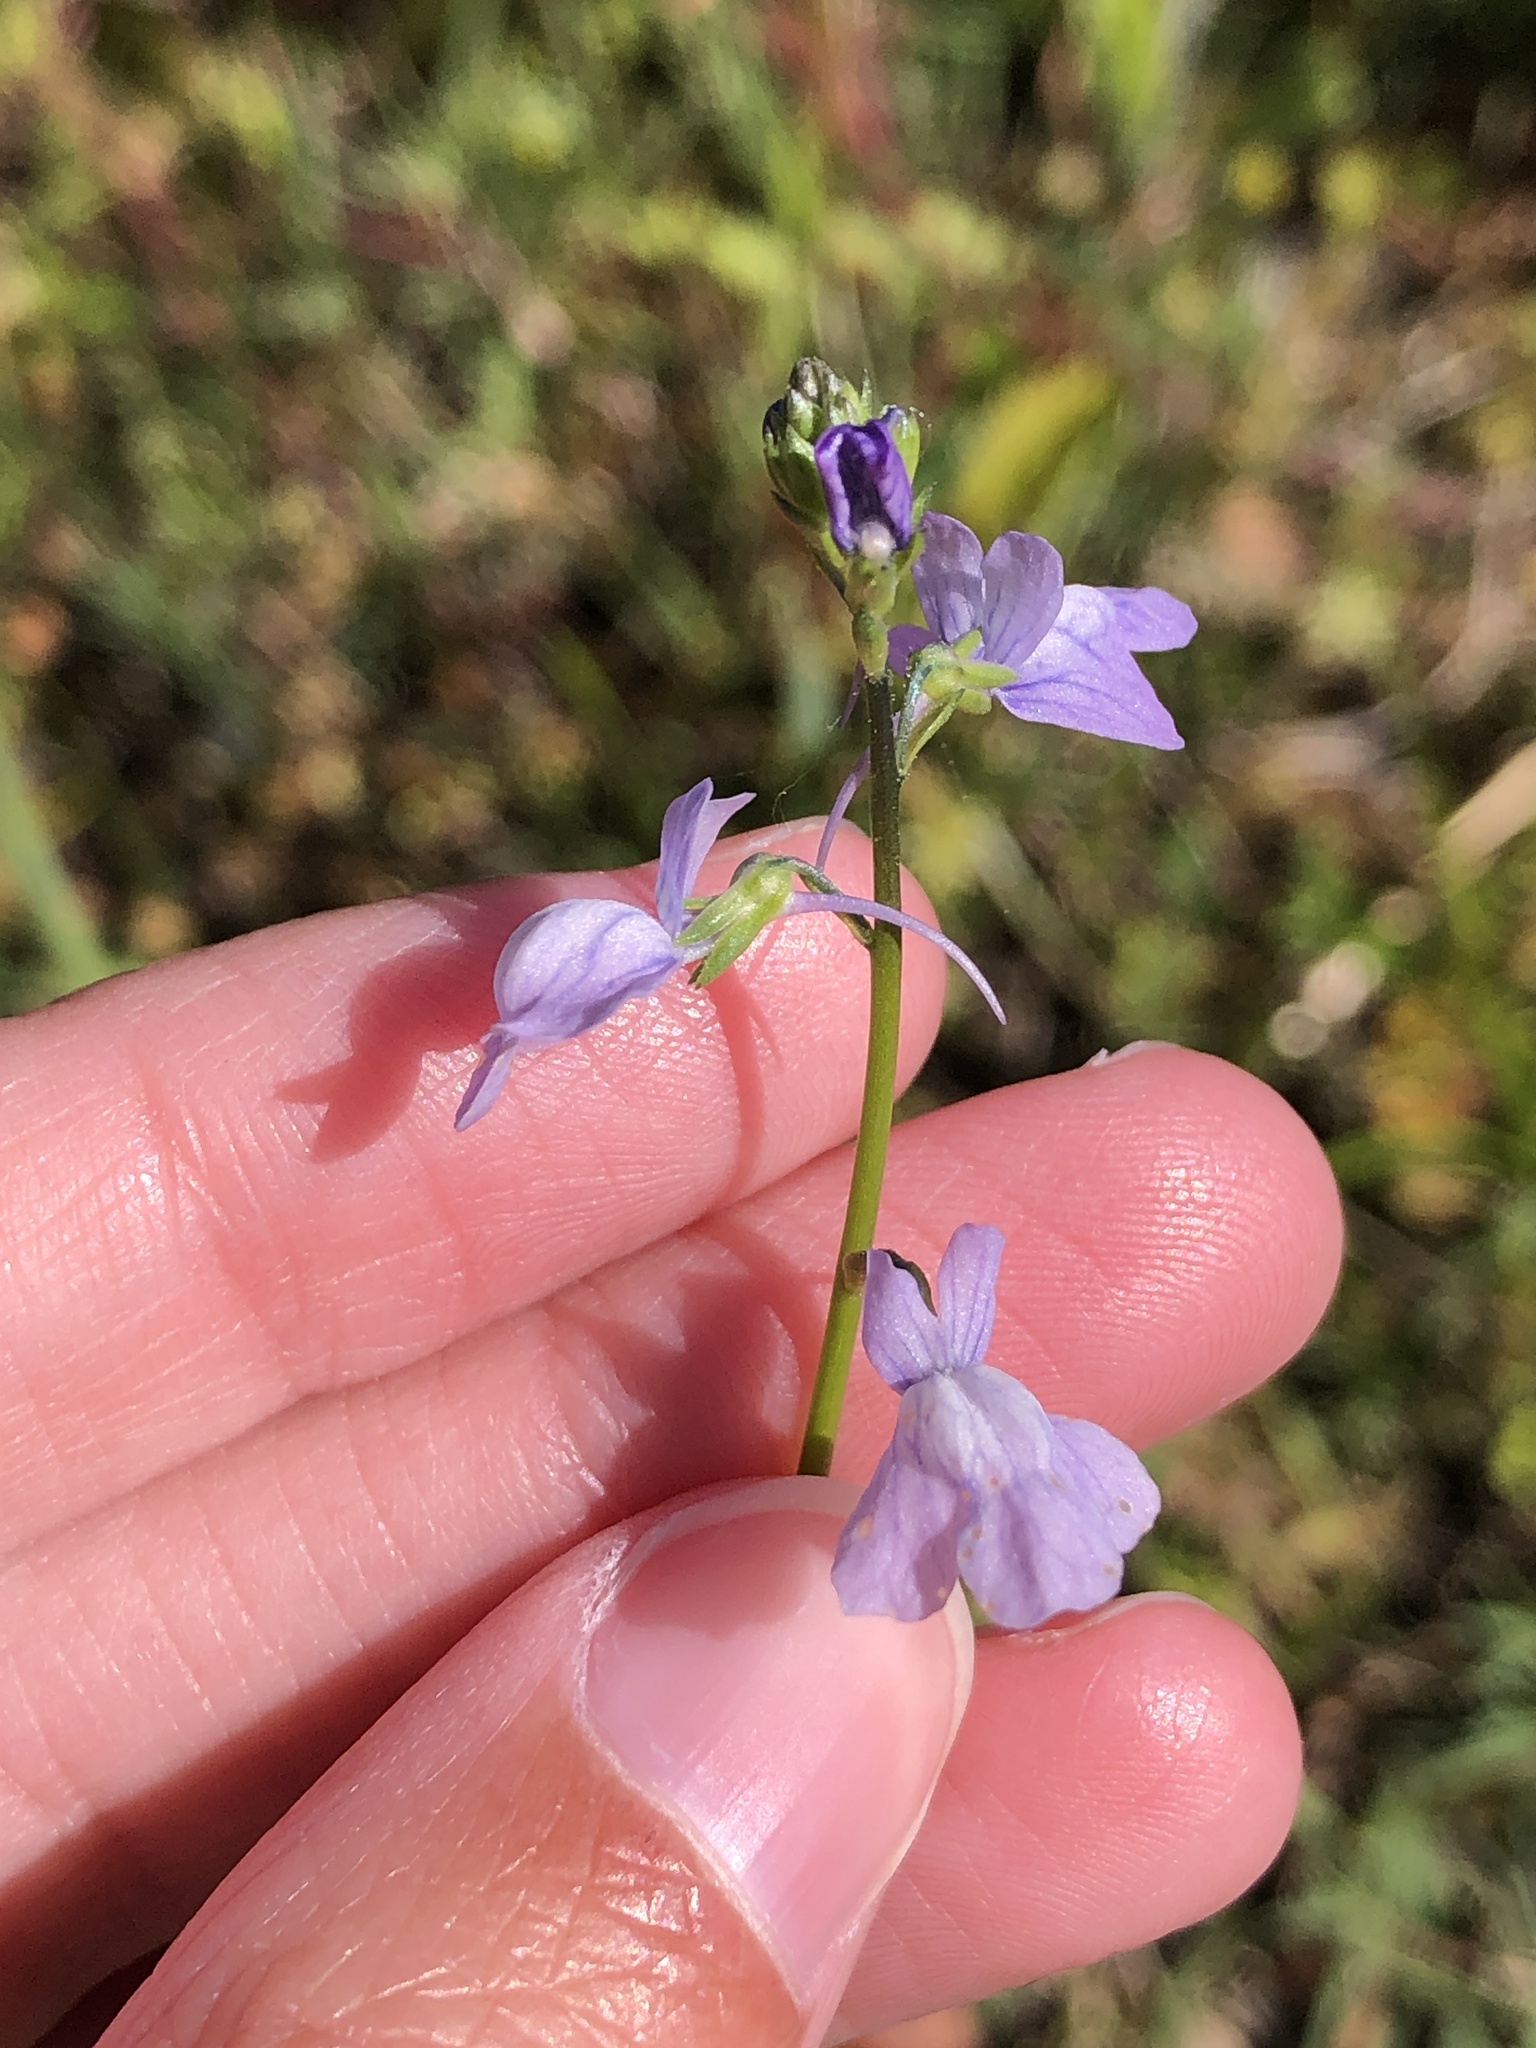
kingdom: Plantae
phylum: Tracheophyta
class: Magnoliopsida
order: Lamiales
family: Plantaginaceae
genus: Nuttallanthus
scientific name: Nuttallanthus texanus
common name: Texas toadflax
